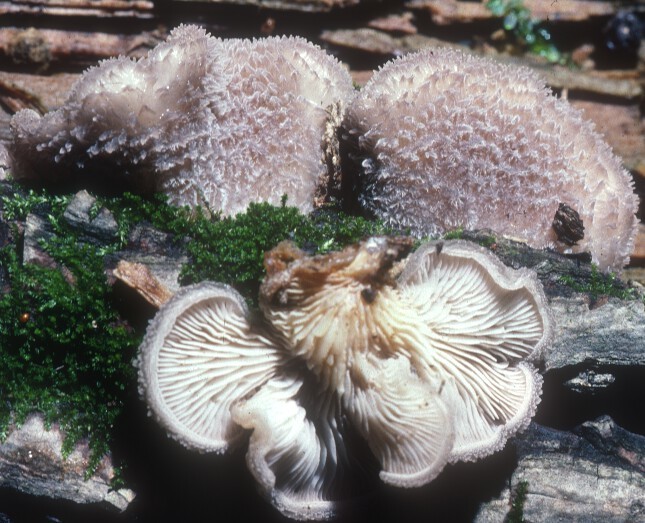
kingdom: Fungi
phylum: Basidiomycota
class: Agaricomycetes
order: Agaricales
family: Pleurotaceae
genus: Hohenbuehelia
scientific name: Hohenbuehelia mastrucata
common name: Woolly oyster
